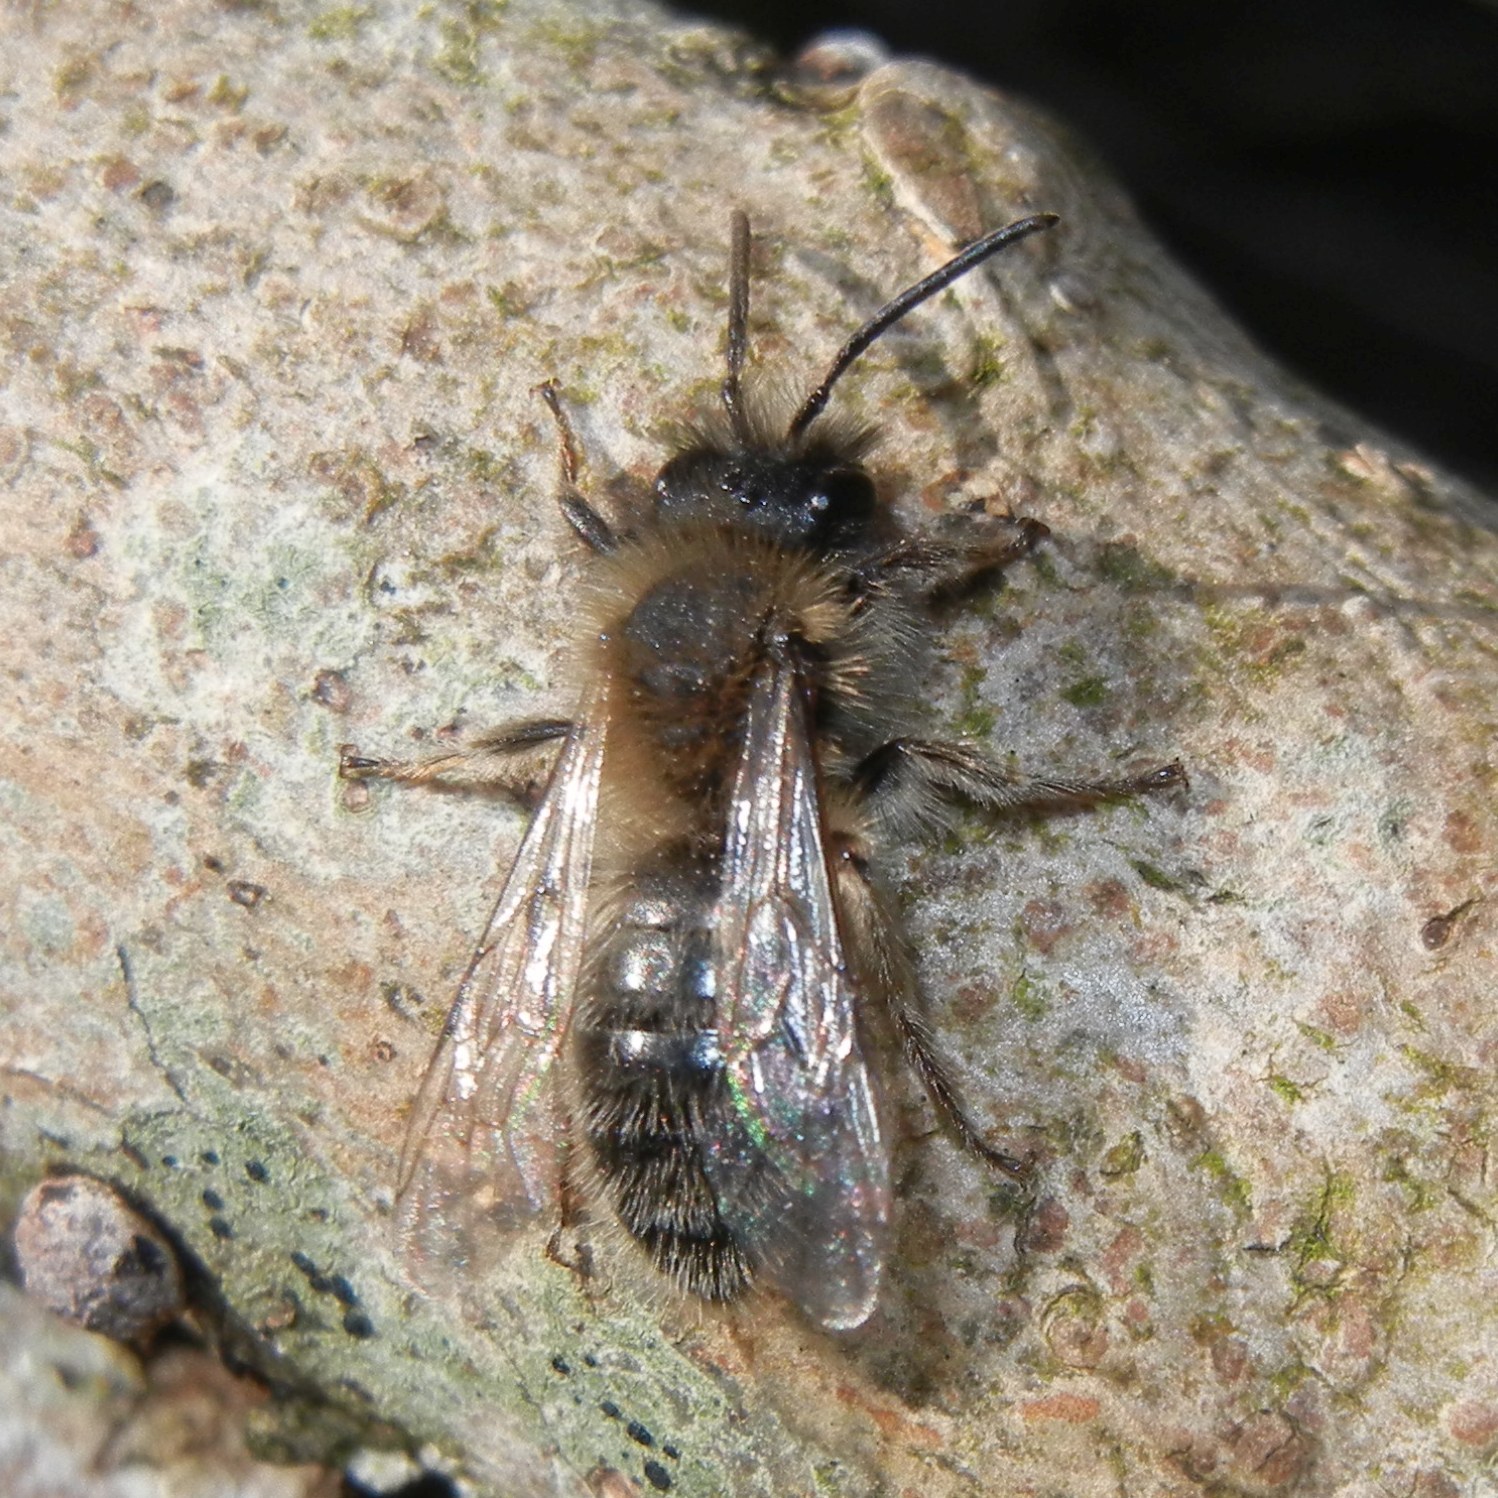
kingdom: Animalia
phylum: Arthropoda
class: Insecta
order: Hymenoptera
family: Andrenidae
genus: Andrena
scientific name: Andrena clarkella
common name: Clarke's mining bee
